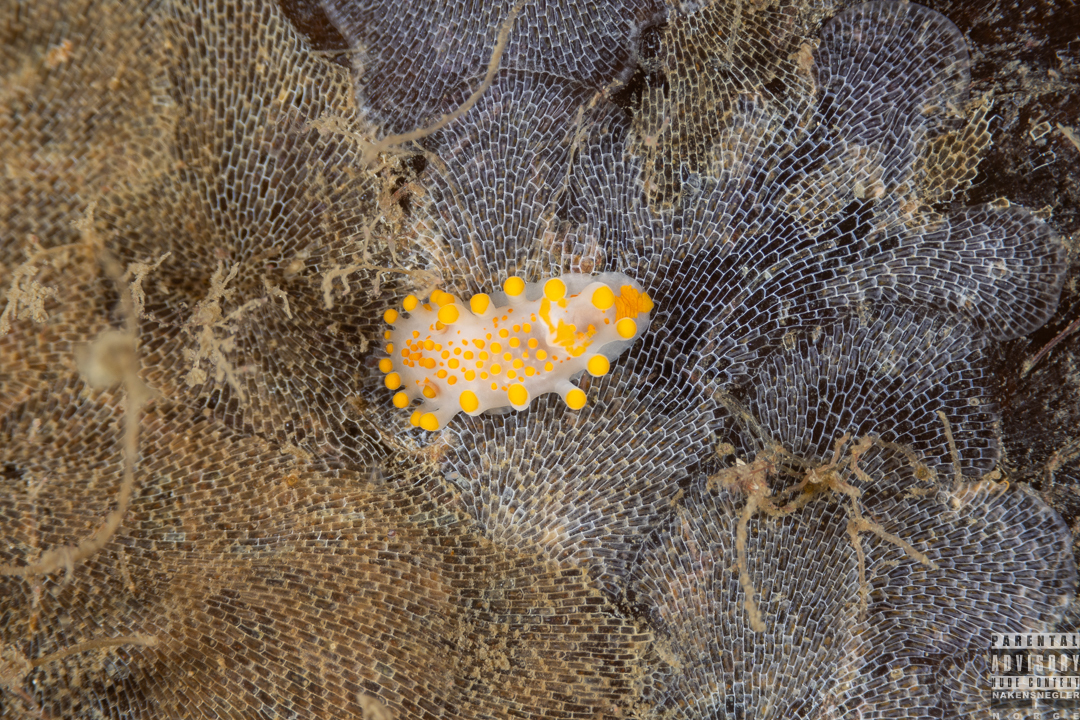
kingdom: Animalia
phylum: Mollusca
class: Gastropoda
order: Nudibranchia
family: Polyceridae
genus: Limacia
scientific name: Limacia clavigera
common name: Orange-clubbed sea slug
